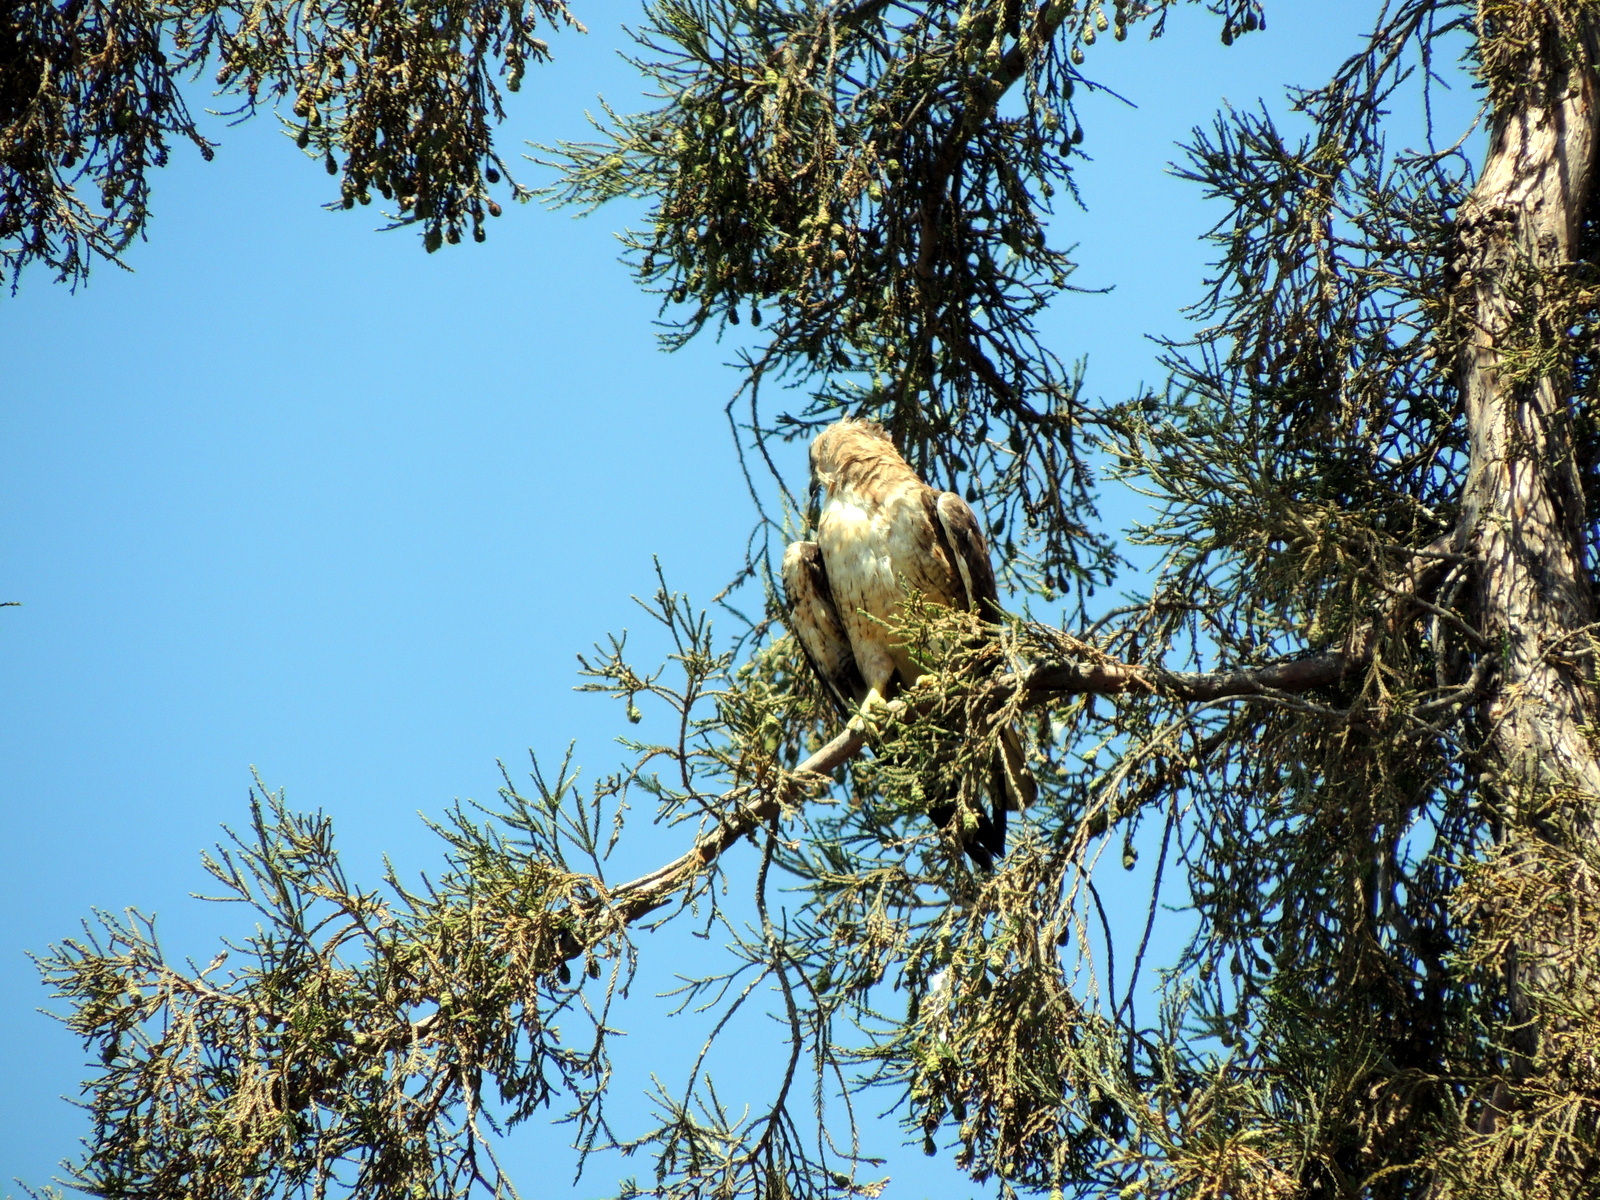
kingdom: Animalia
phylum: Chordata
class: Aves
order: Accipitriformes
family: Accipitridae
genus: Buteo
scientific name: Buteo jamaicensis
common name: Red-tailed hawk
